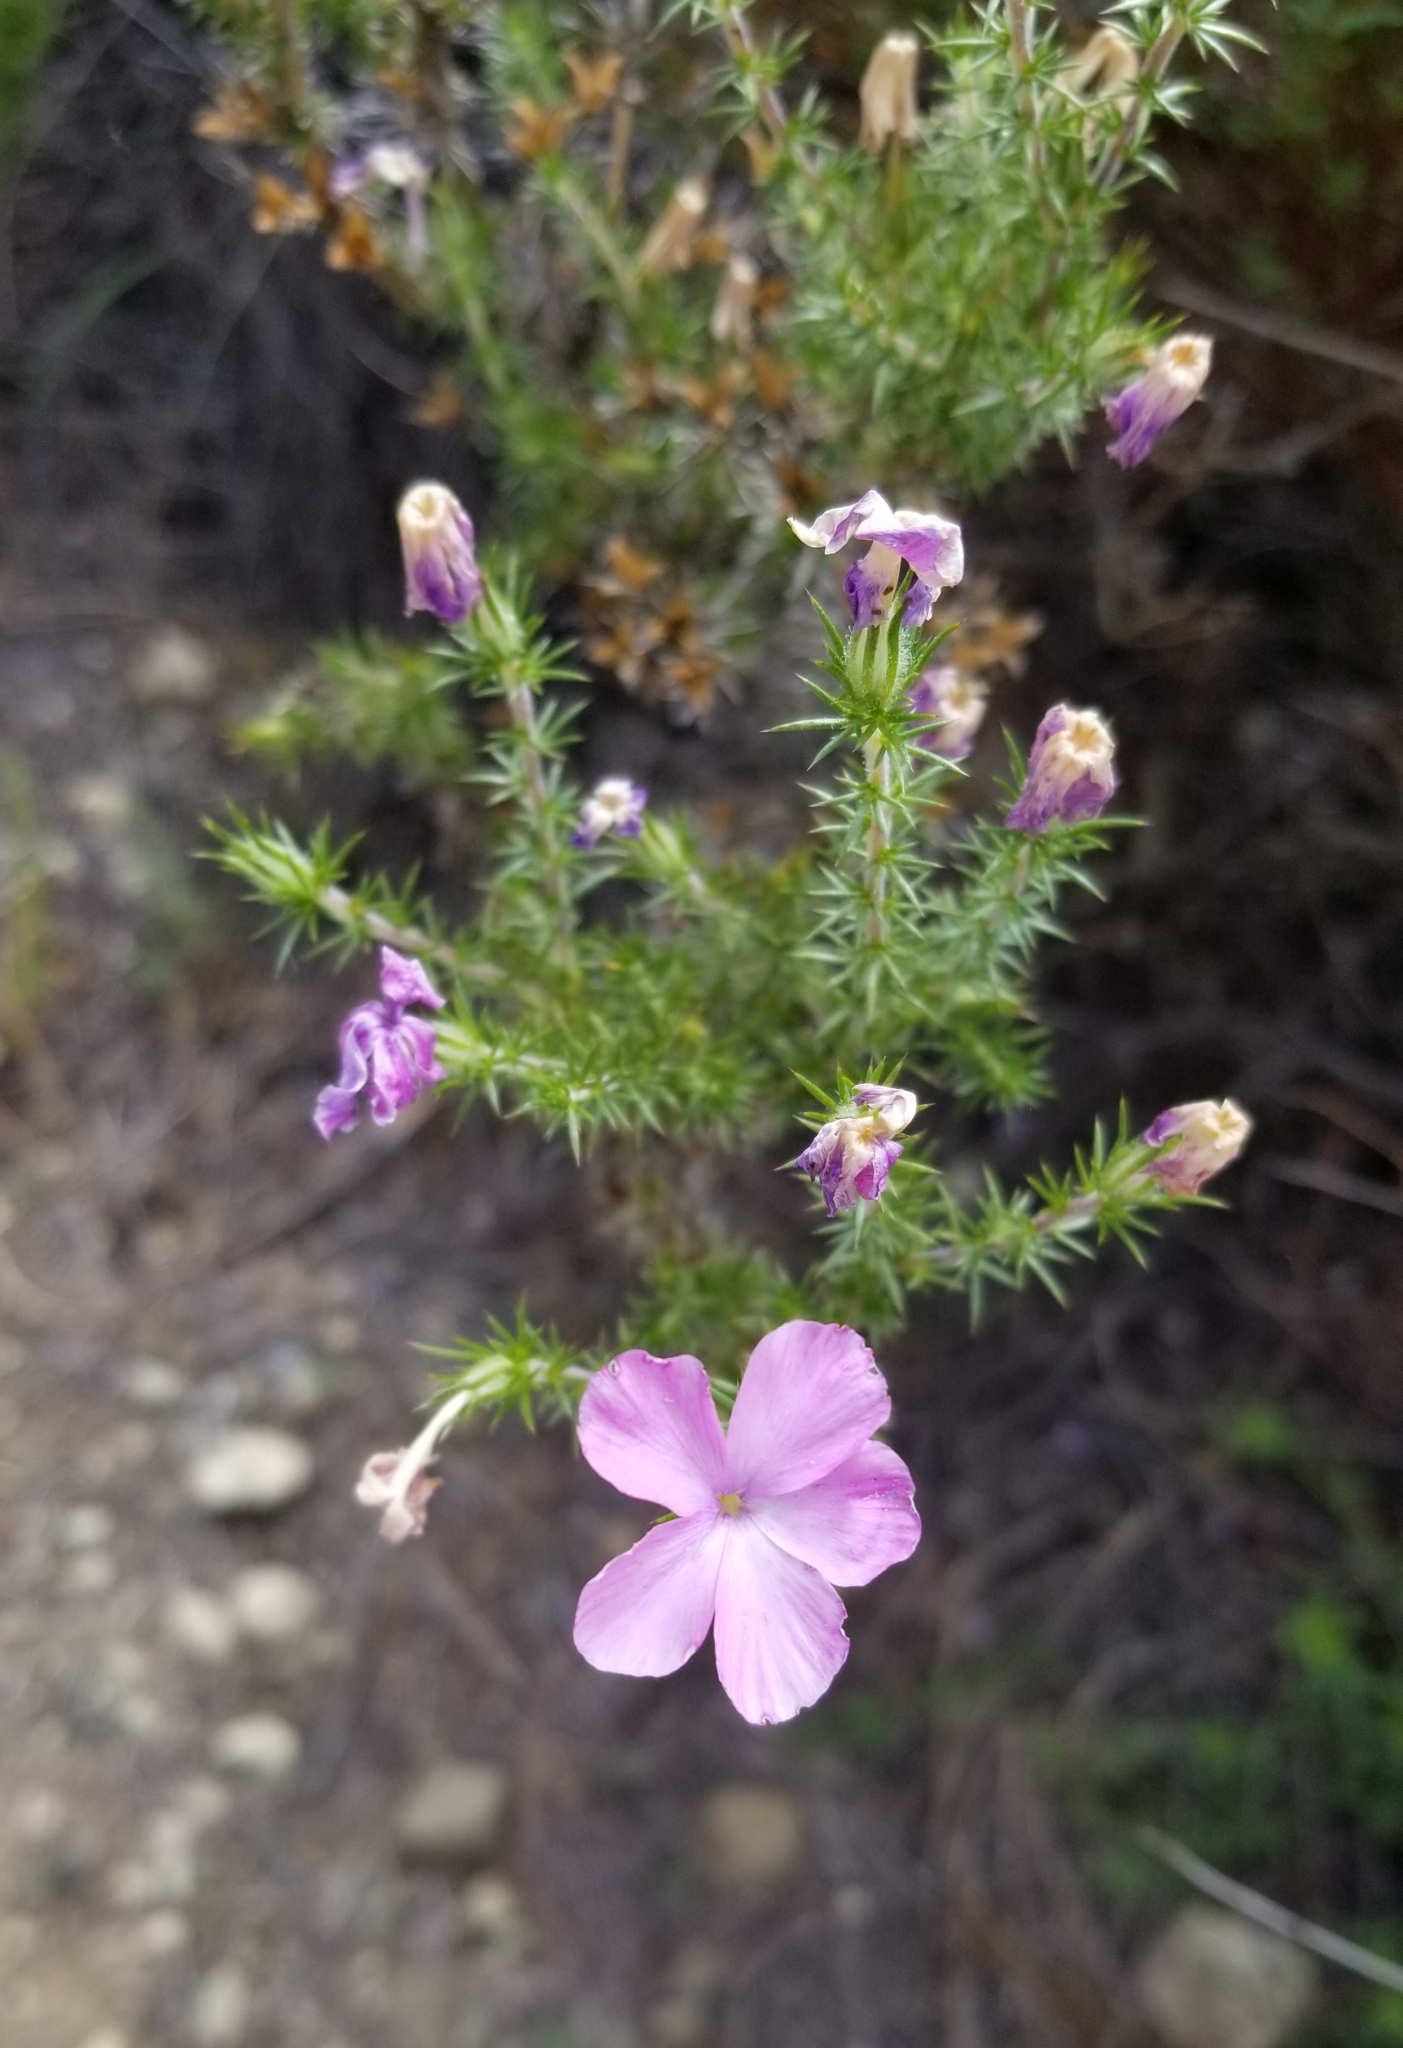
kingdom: Plantae
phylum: Tracheophyta
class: Magnoliopsida
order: Ericales
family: Polemoniaceae
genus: Linanthus
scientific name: Linanthus californicus
